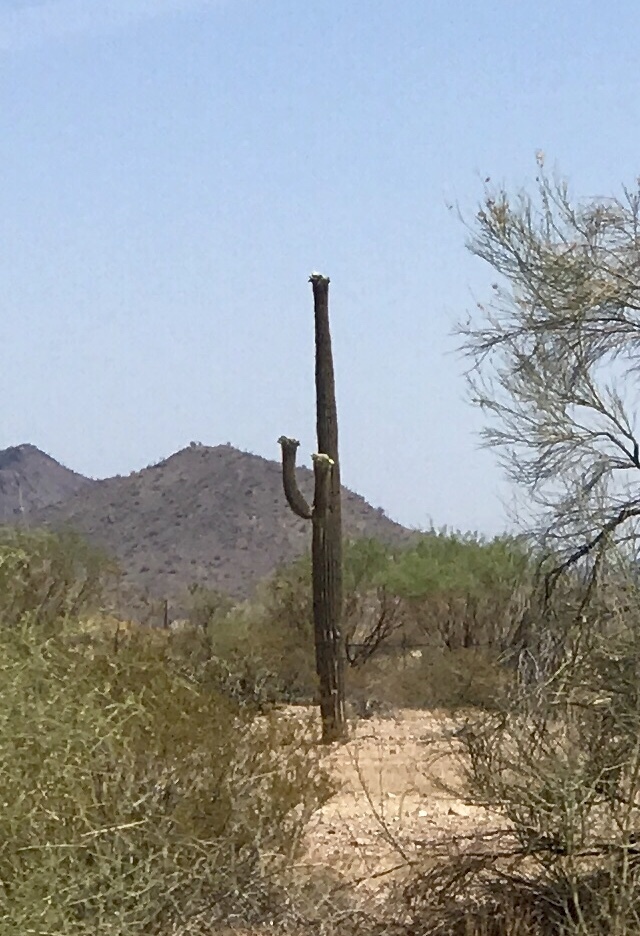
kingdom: Plantae
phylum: Tracheophyta
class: Magnoliopsida
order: Caryophyllales
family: Cactaceae
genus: Carnegiea
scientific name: Carnegiea gigantea
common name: Saguaro
